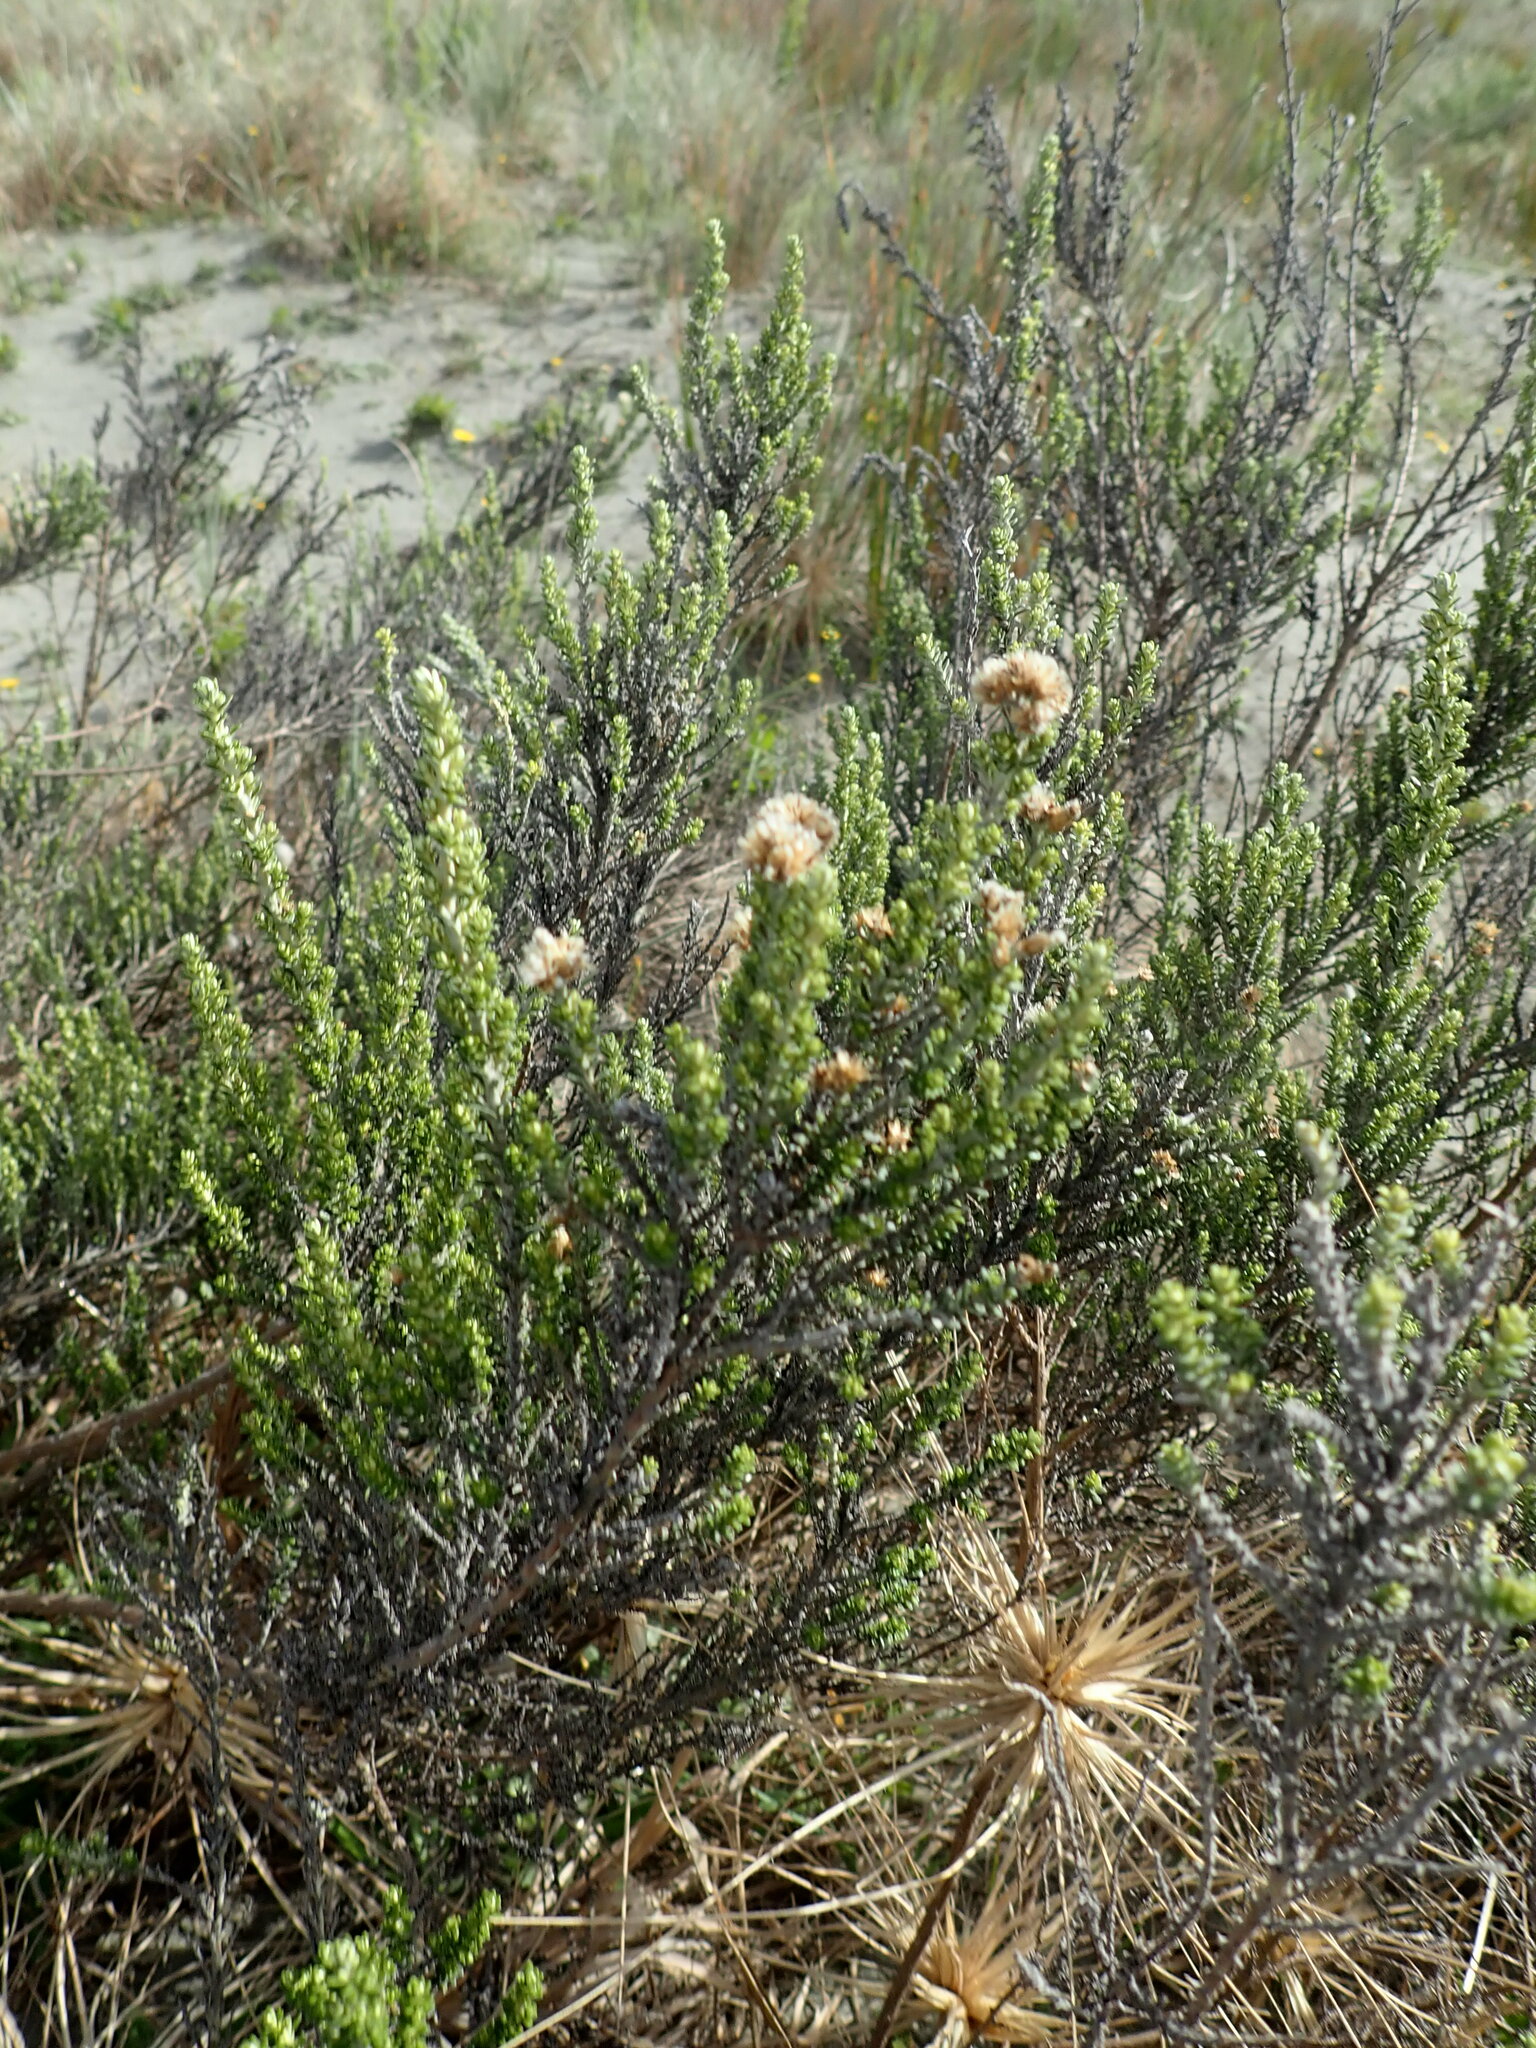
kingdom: Plantae
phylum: Tracheophyta
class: Magnoliopsida
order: Asterales
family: Asteraceae
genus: Ozothamnus
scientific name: Ozothamnus leptophyllus
